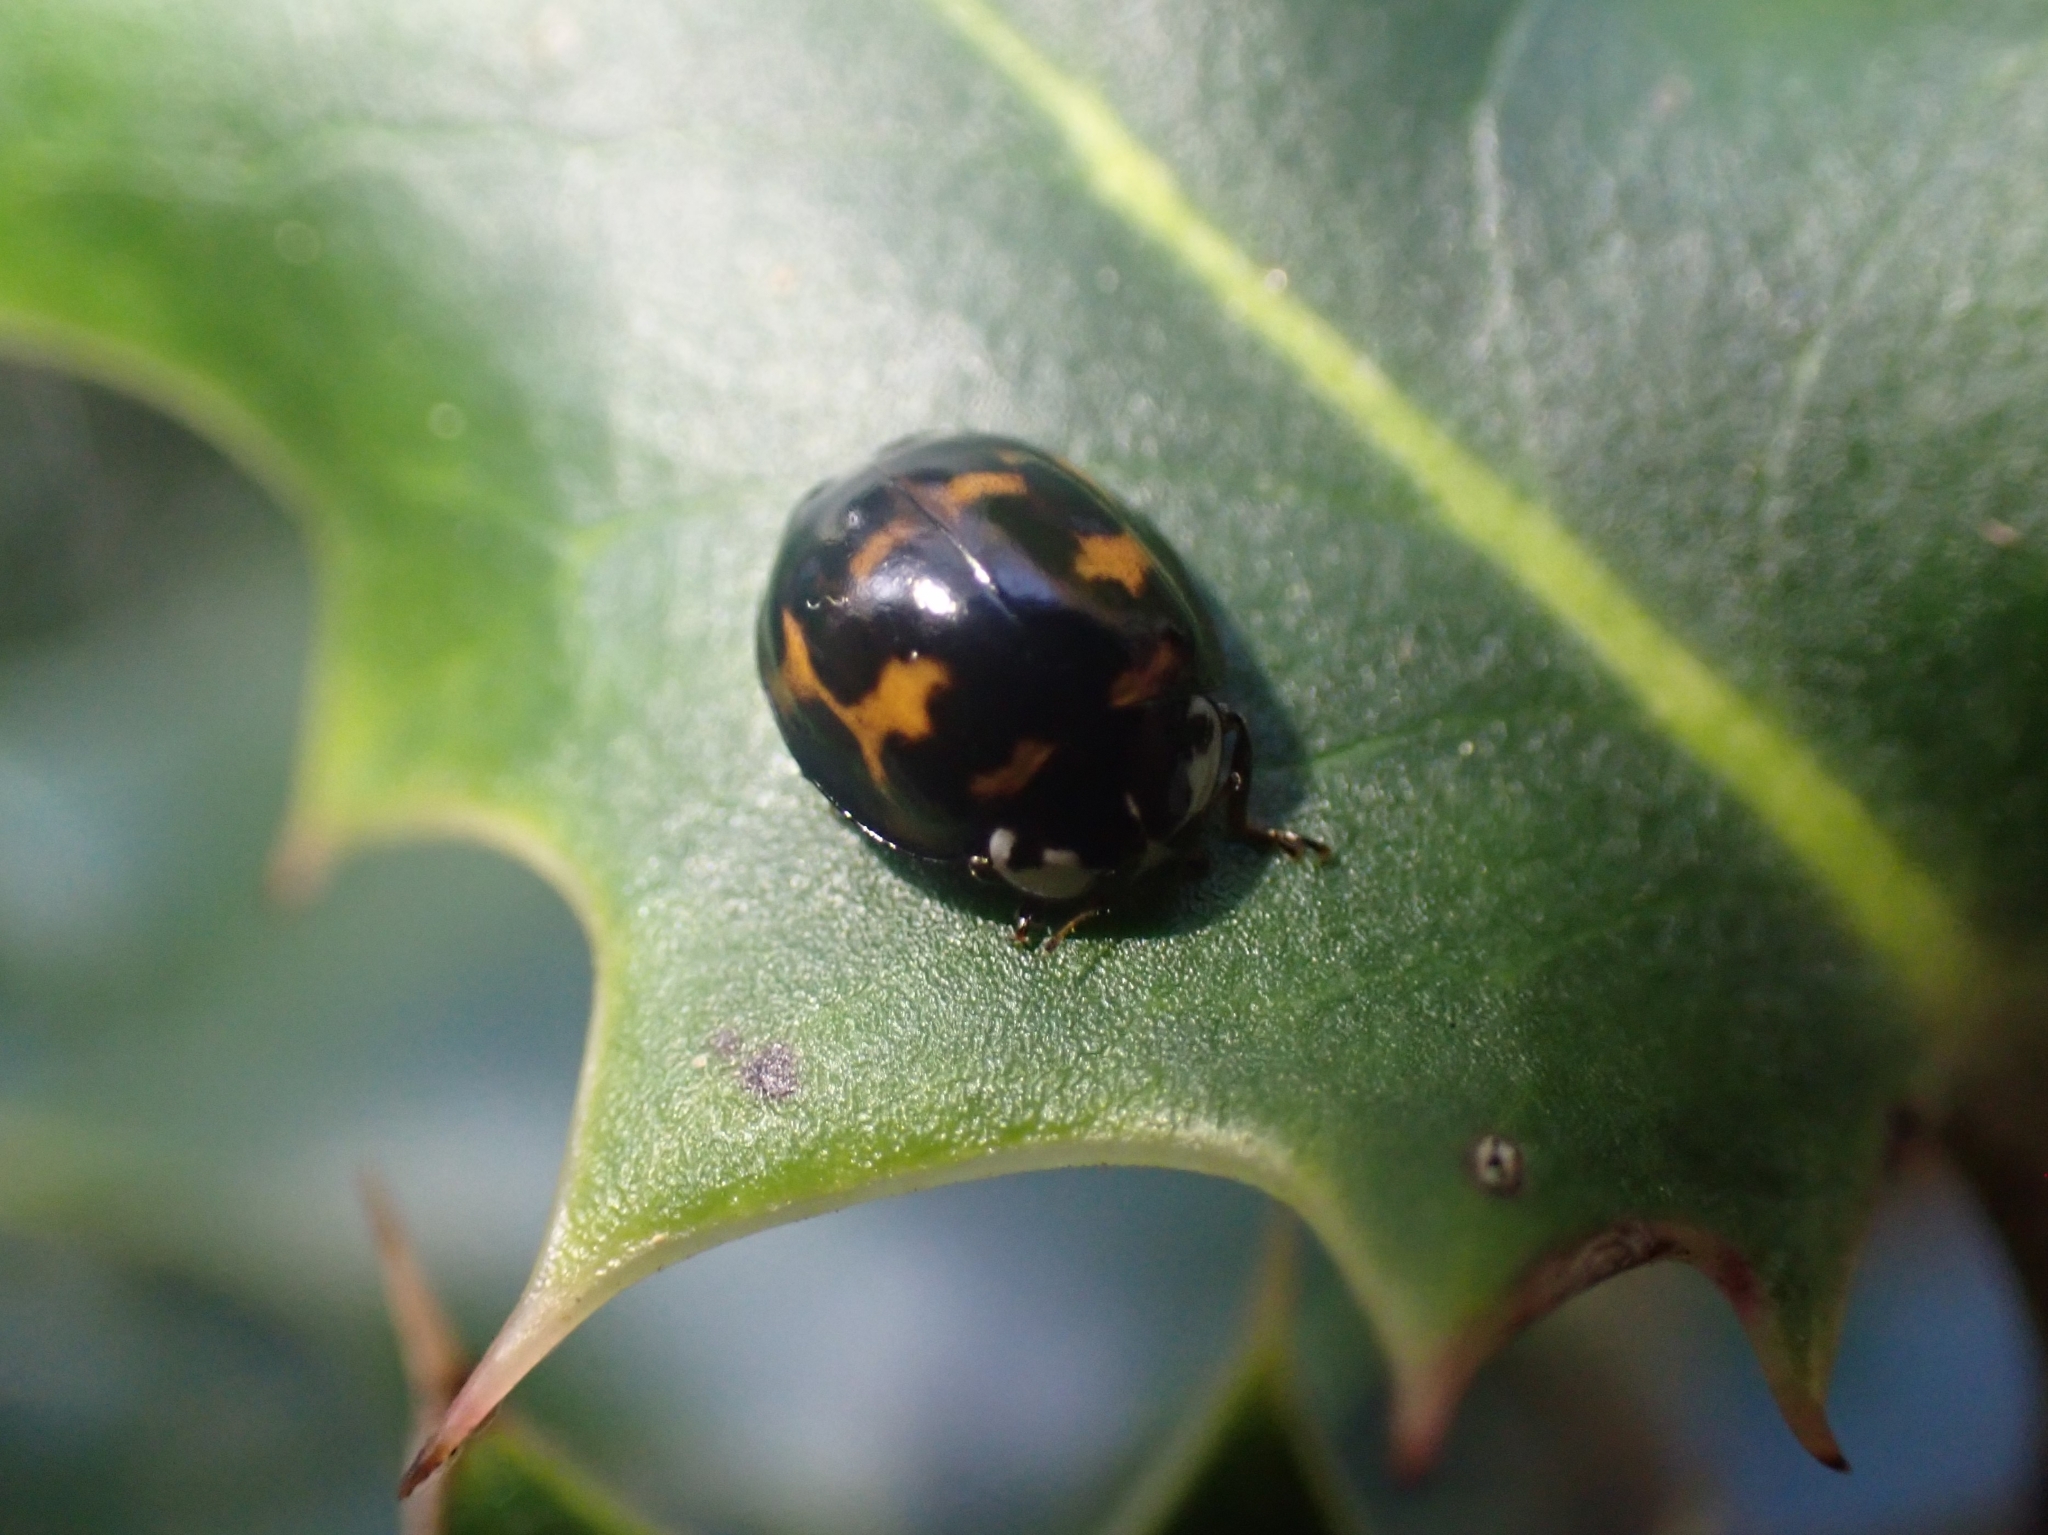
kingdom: Animalia
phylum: Arthropoda
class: Insecta
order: Coleoptera
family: Coccinellidae
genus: Harmonia
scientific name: Harmonia axyridis
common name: Harlequin ladybird
